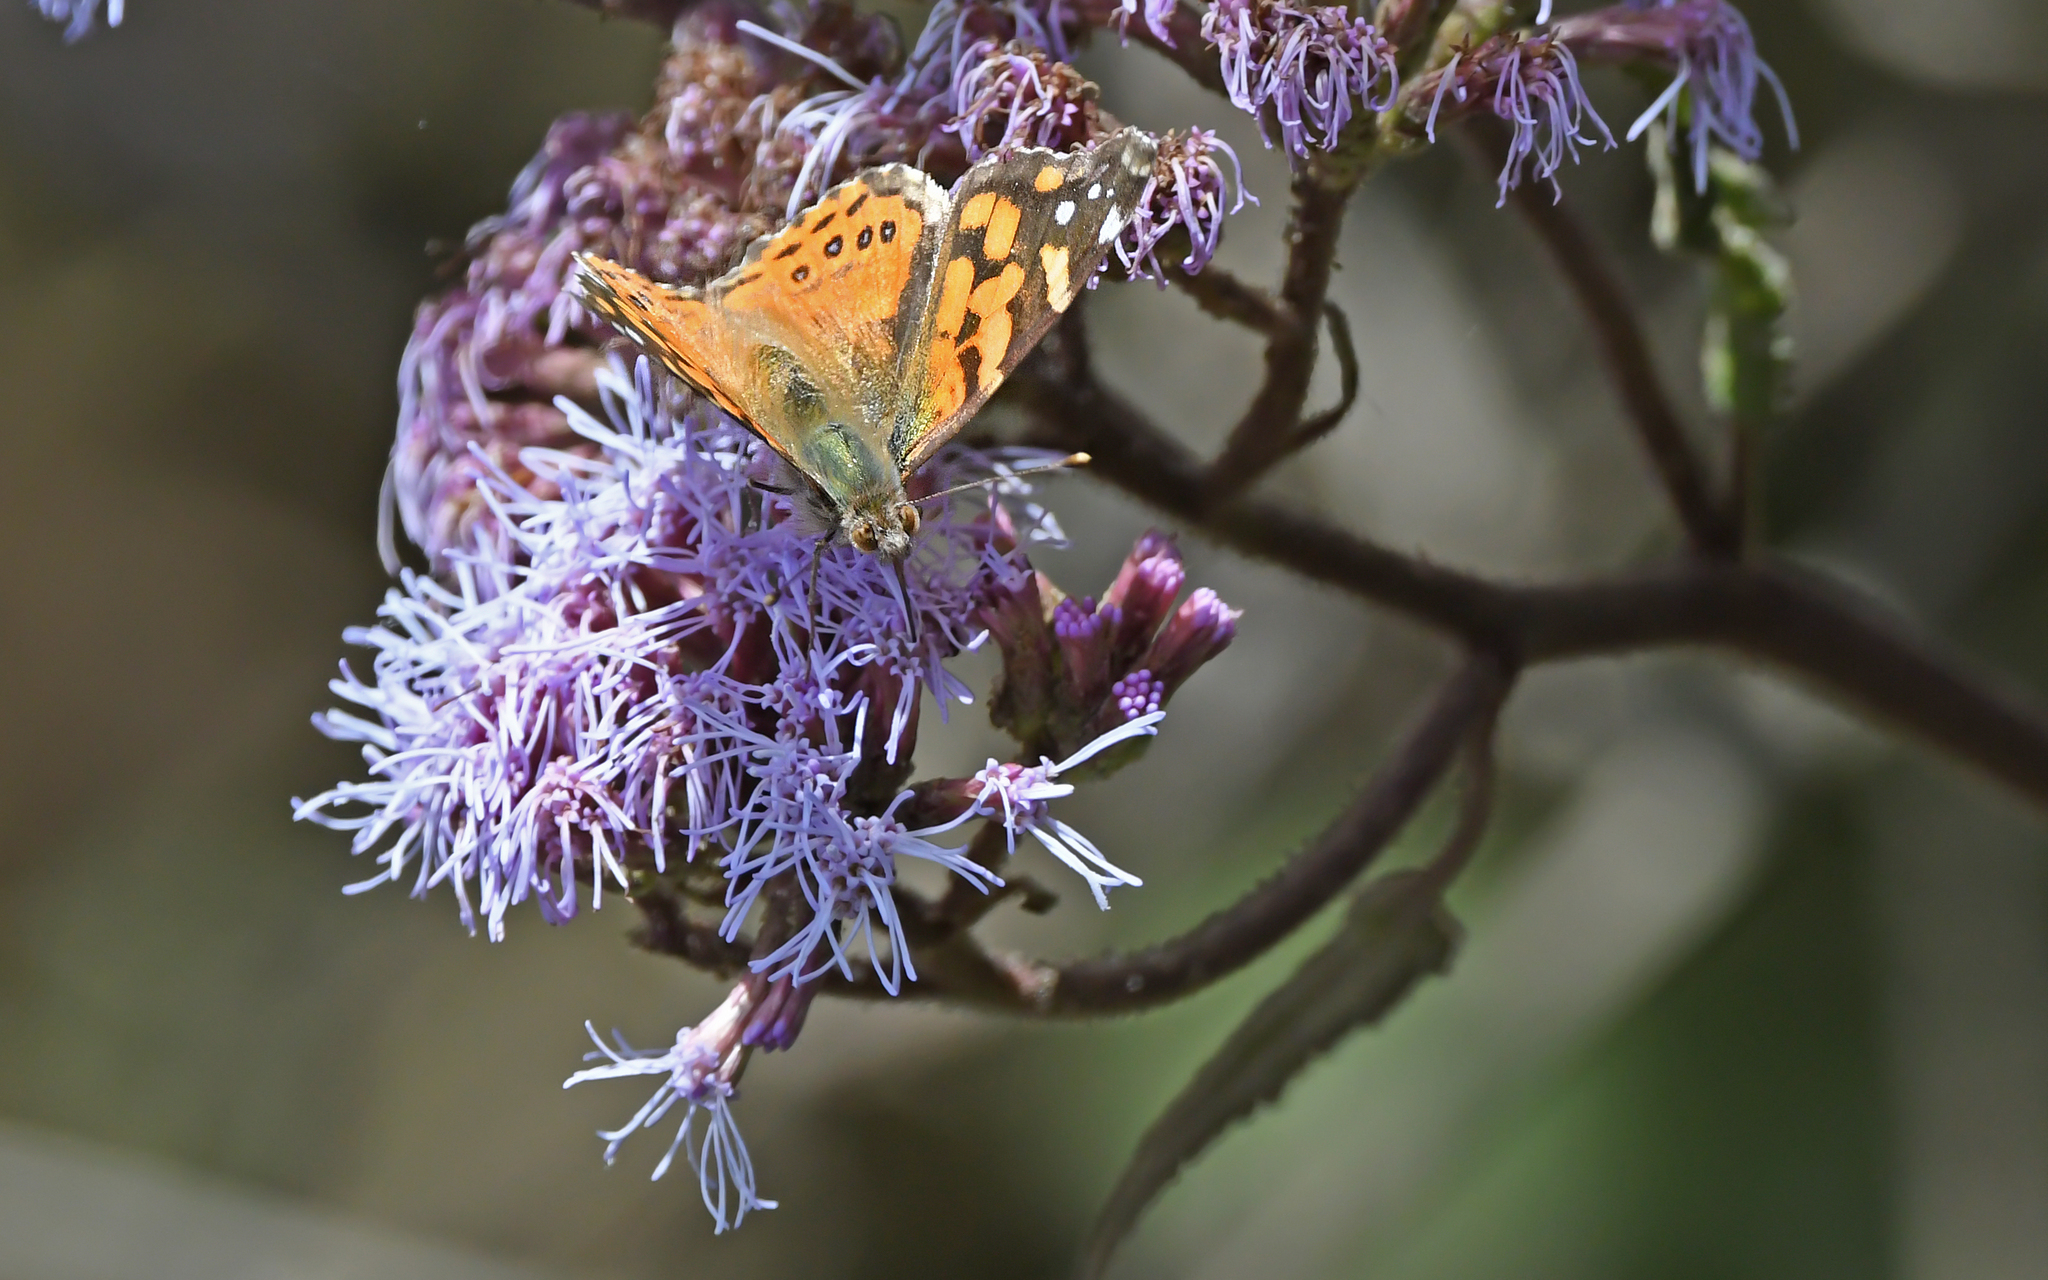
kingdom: Animalia
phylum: Arthropoda
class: Insecta
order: Lepidoptera
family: Nymphalidae
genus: Vanessa
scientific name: Vanessa carye
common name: Subtropical lady
